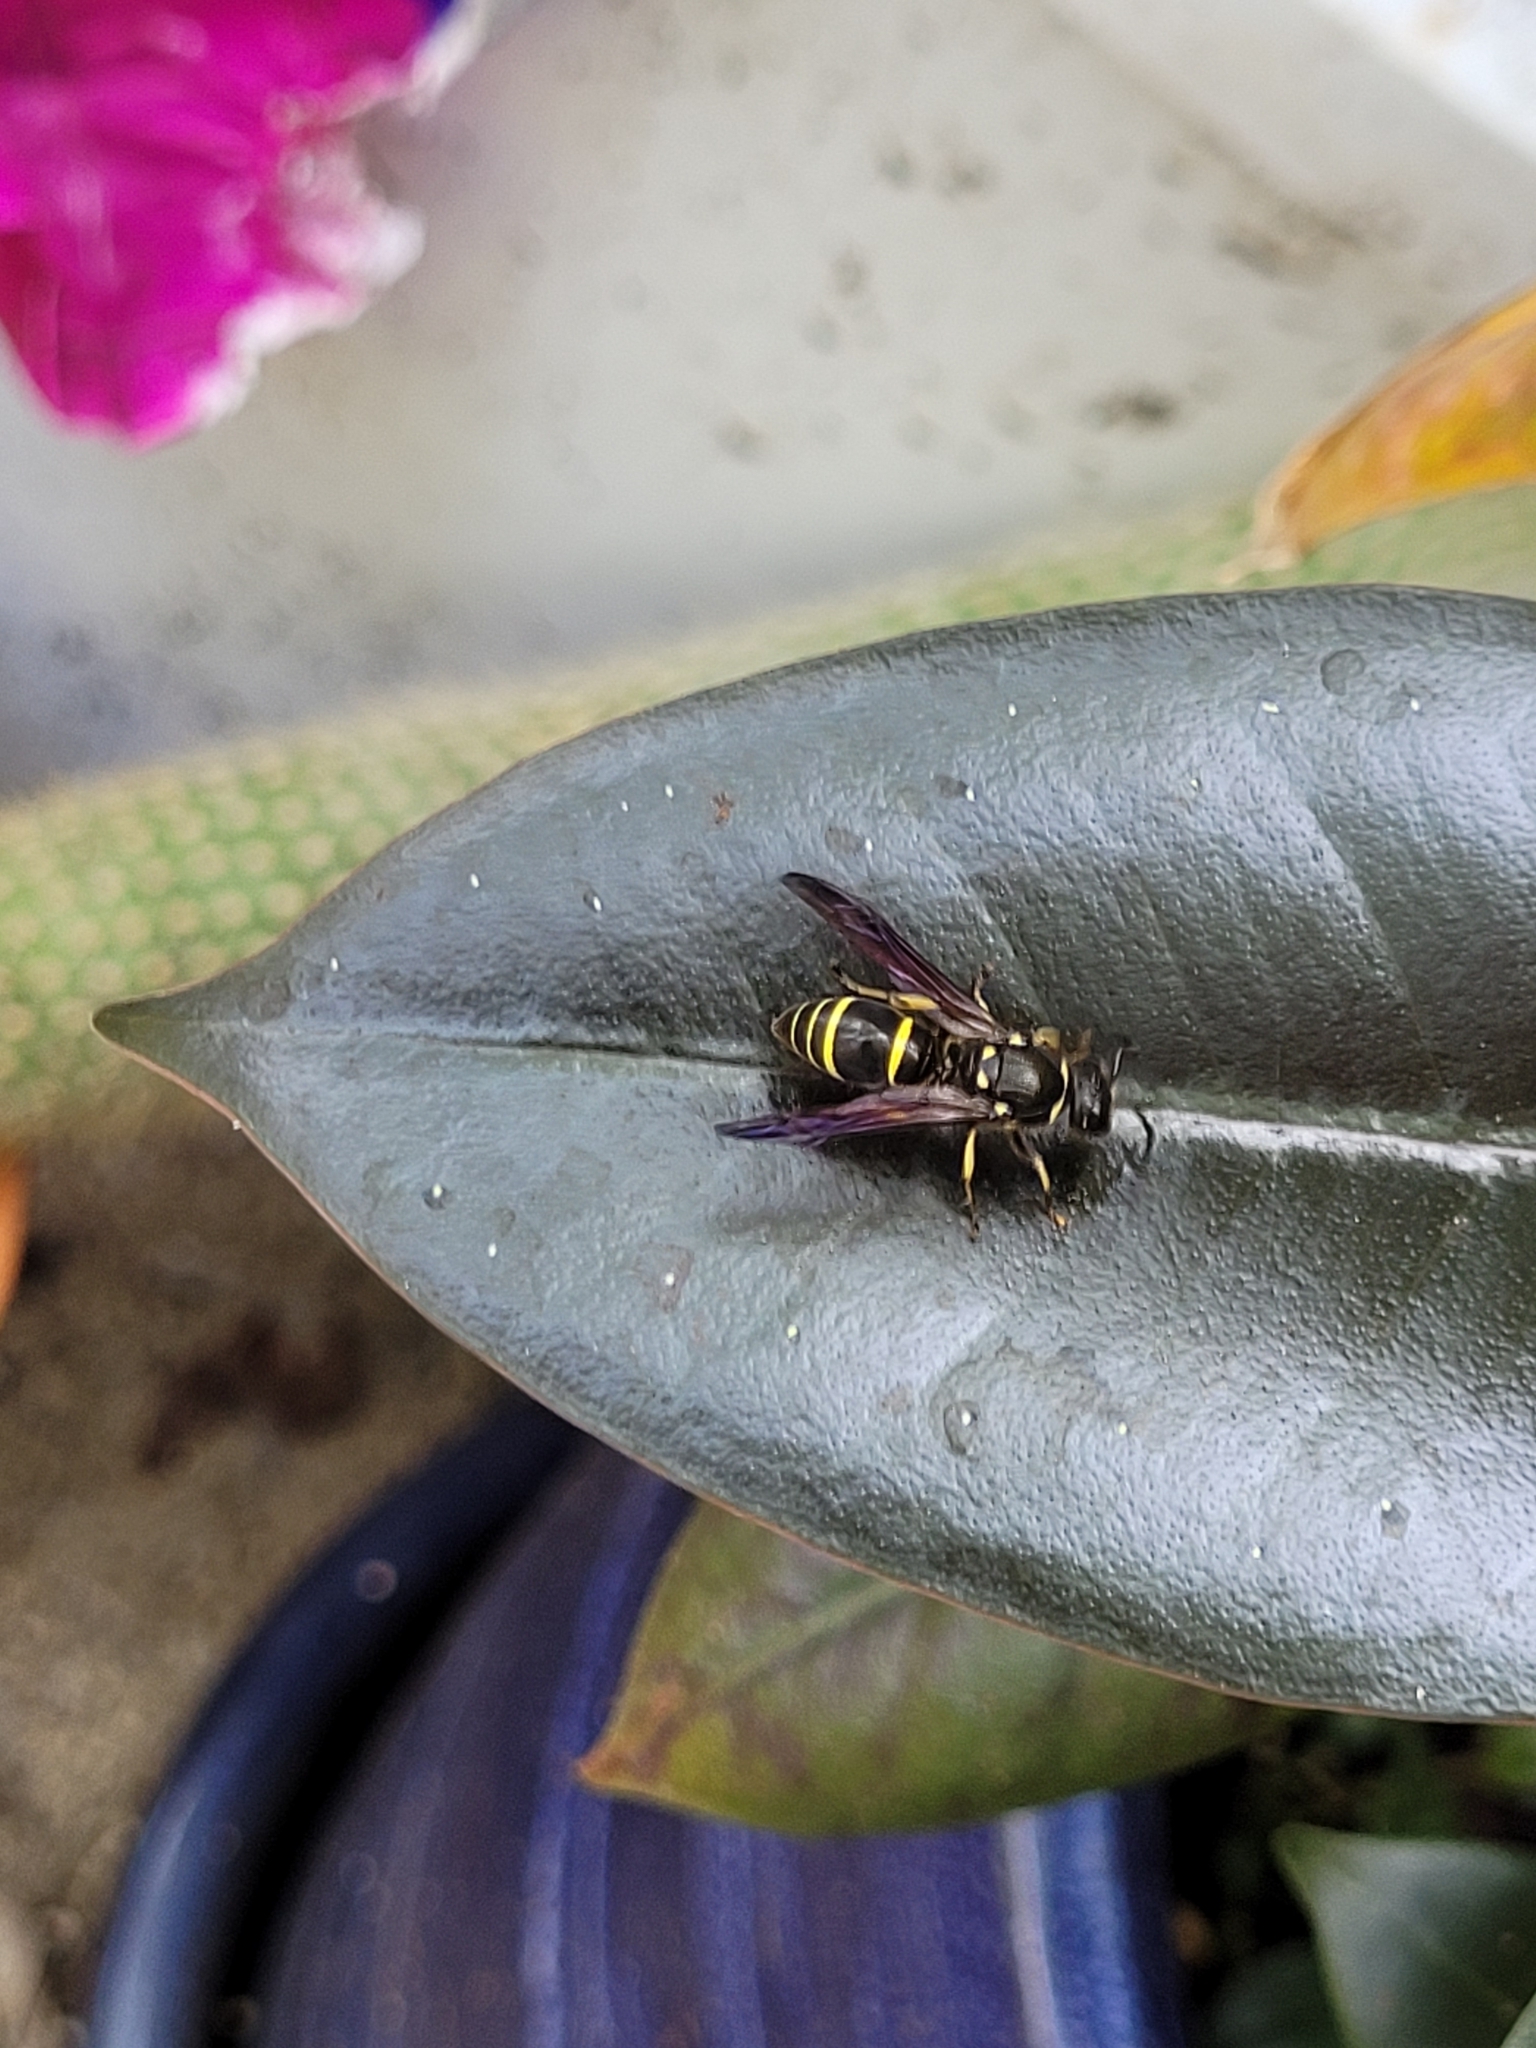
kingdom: Animalia
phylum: Arthropoda
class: Insecta
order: Hymenoptera
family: Vespidae
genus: Ancistrocerus
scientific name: Ancistrocerus
